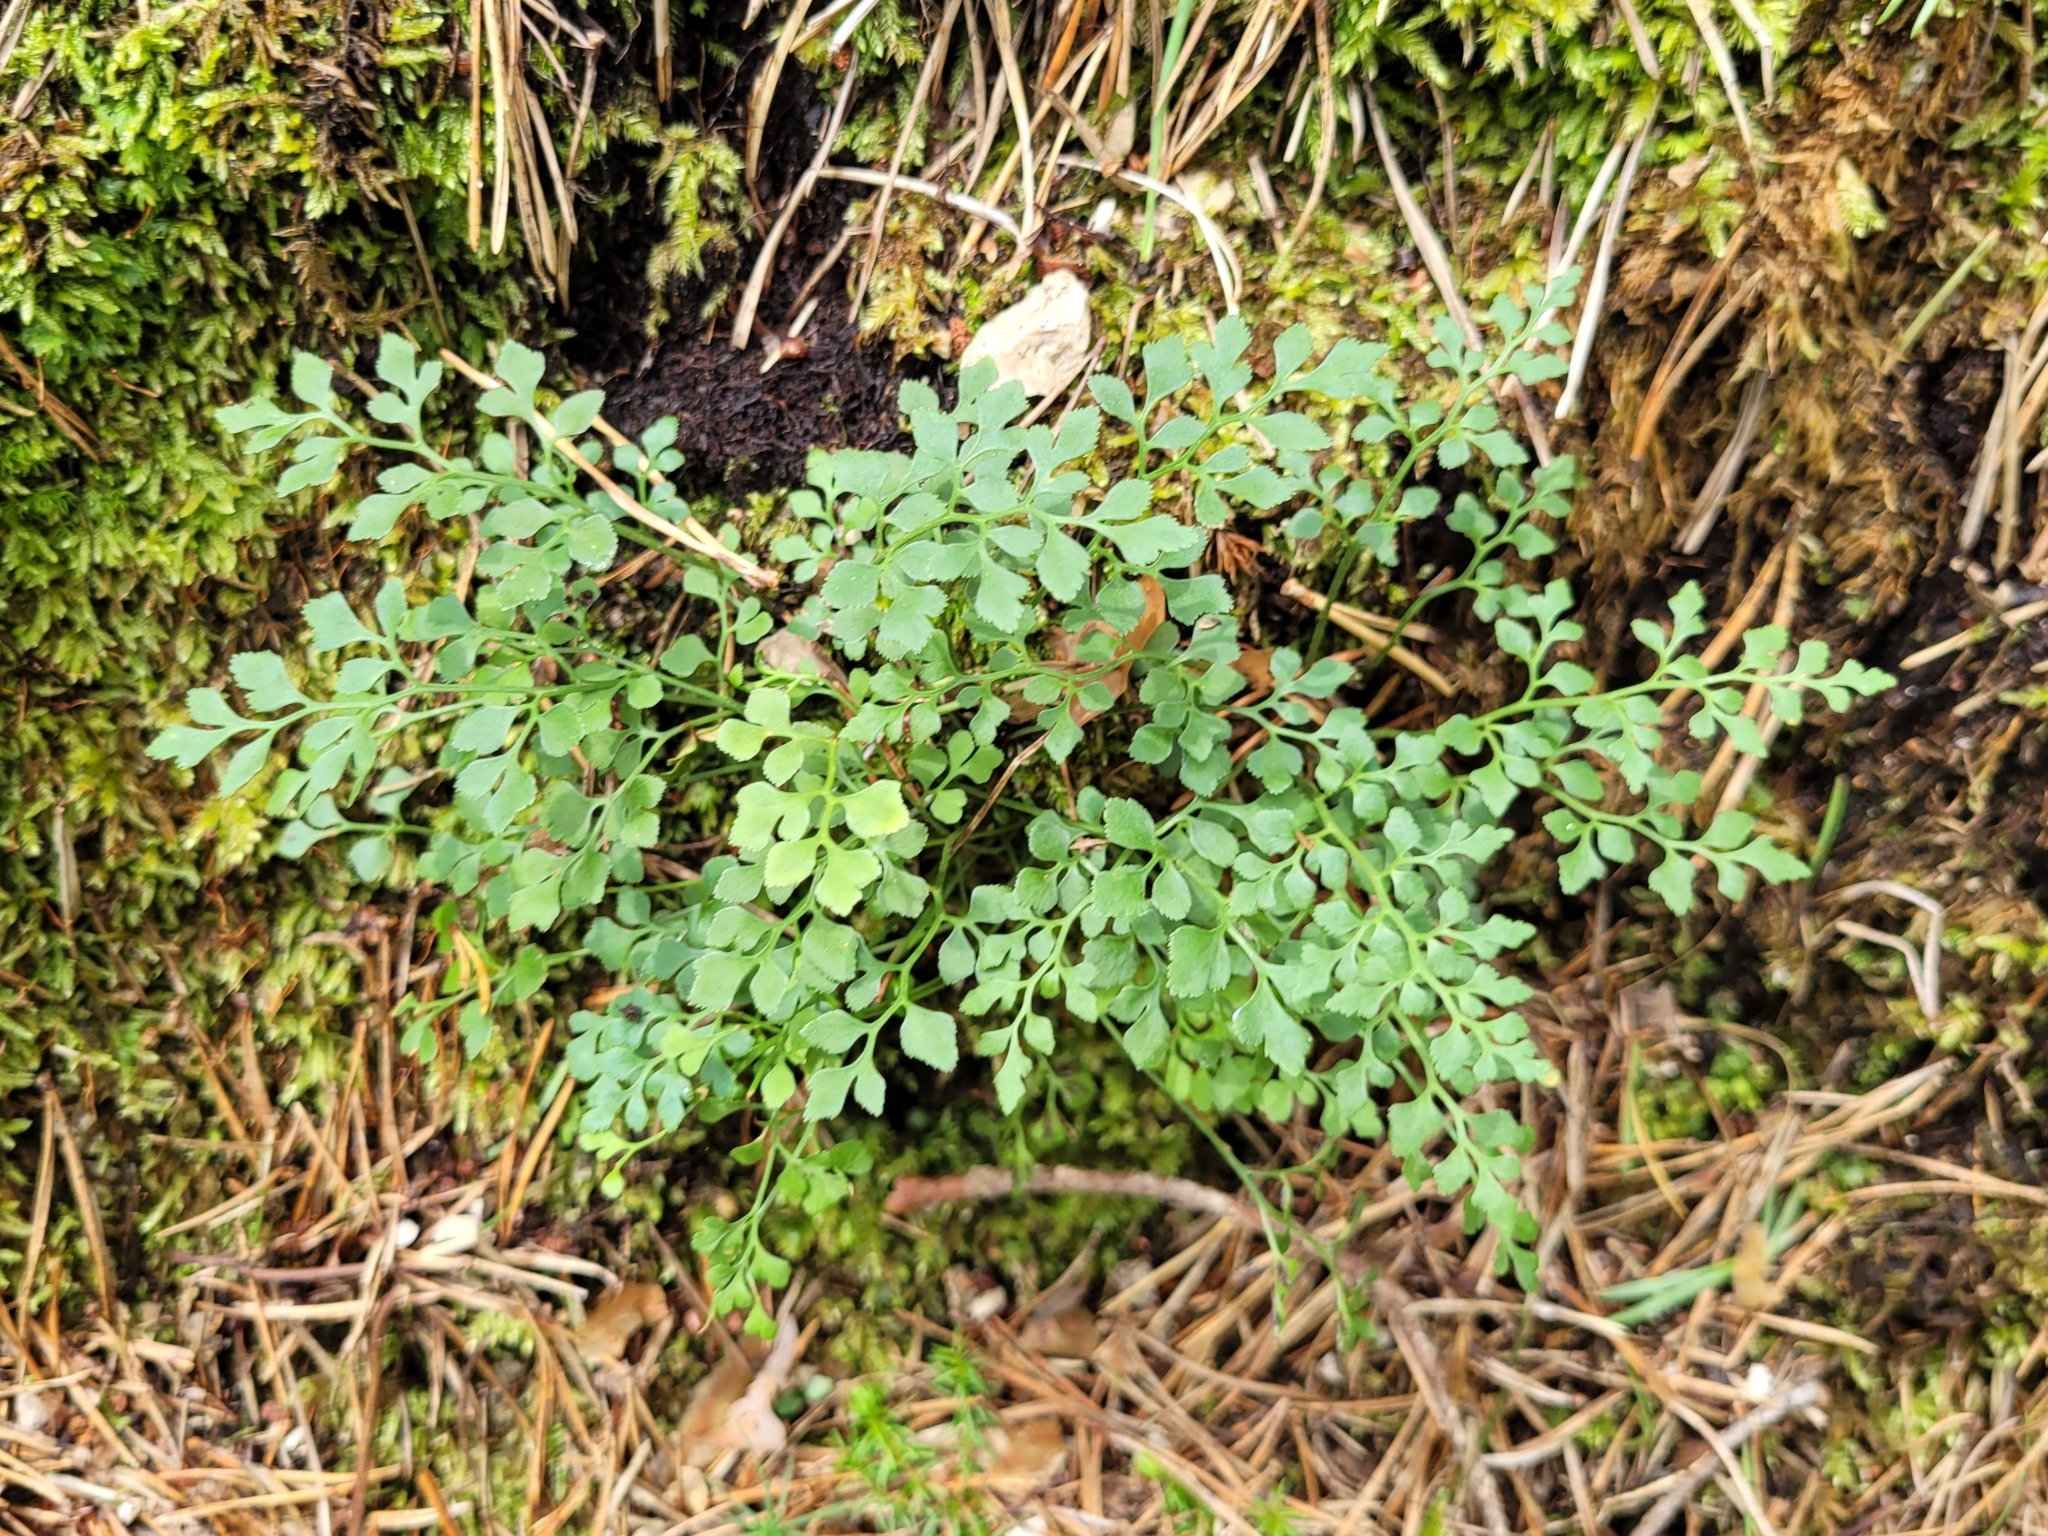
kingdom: Plantae
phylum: Tracheophyta
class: Polypodiopsida
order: Polypodiales
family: Aspleniaceae
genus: Asplenium
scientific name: Asplenium ruta-muraria
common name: Wall-rue
